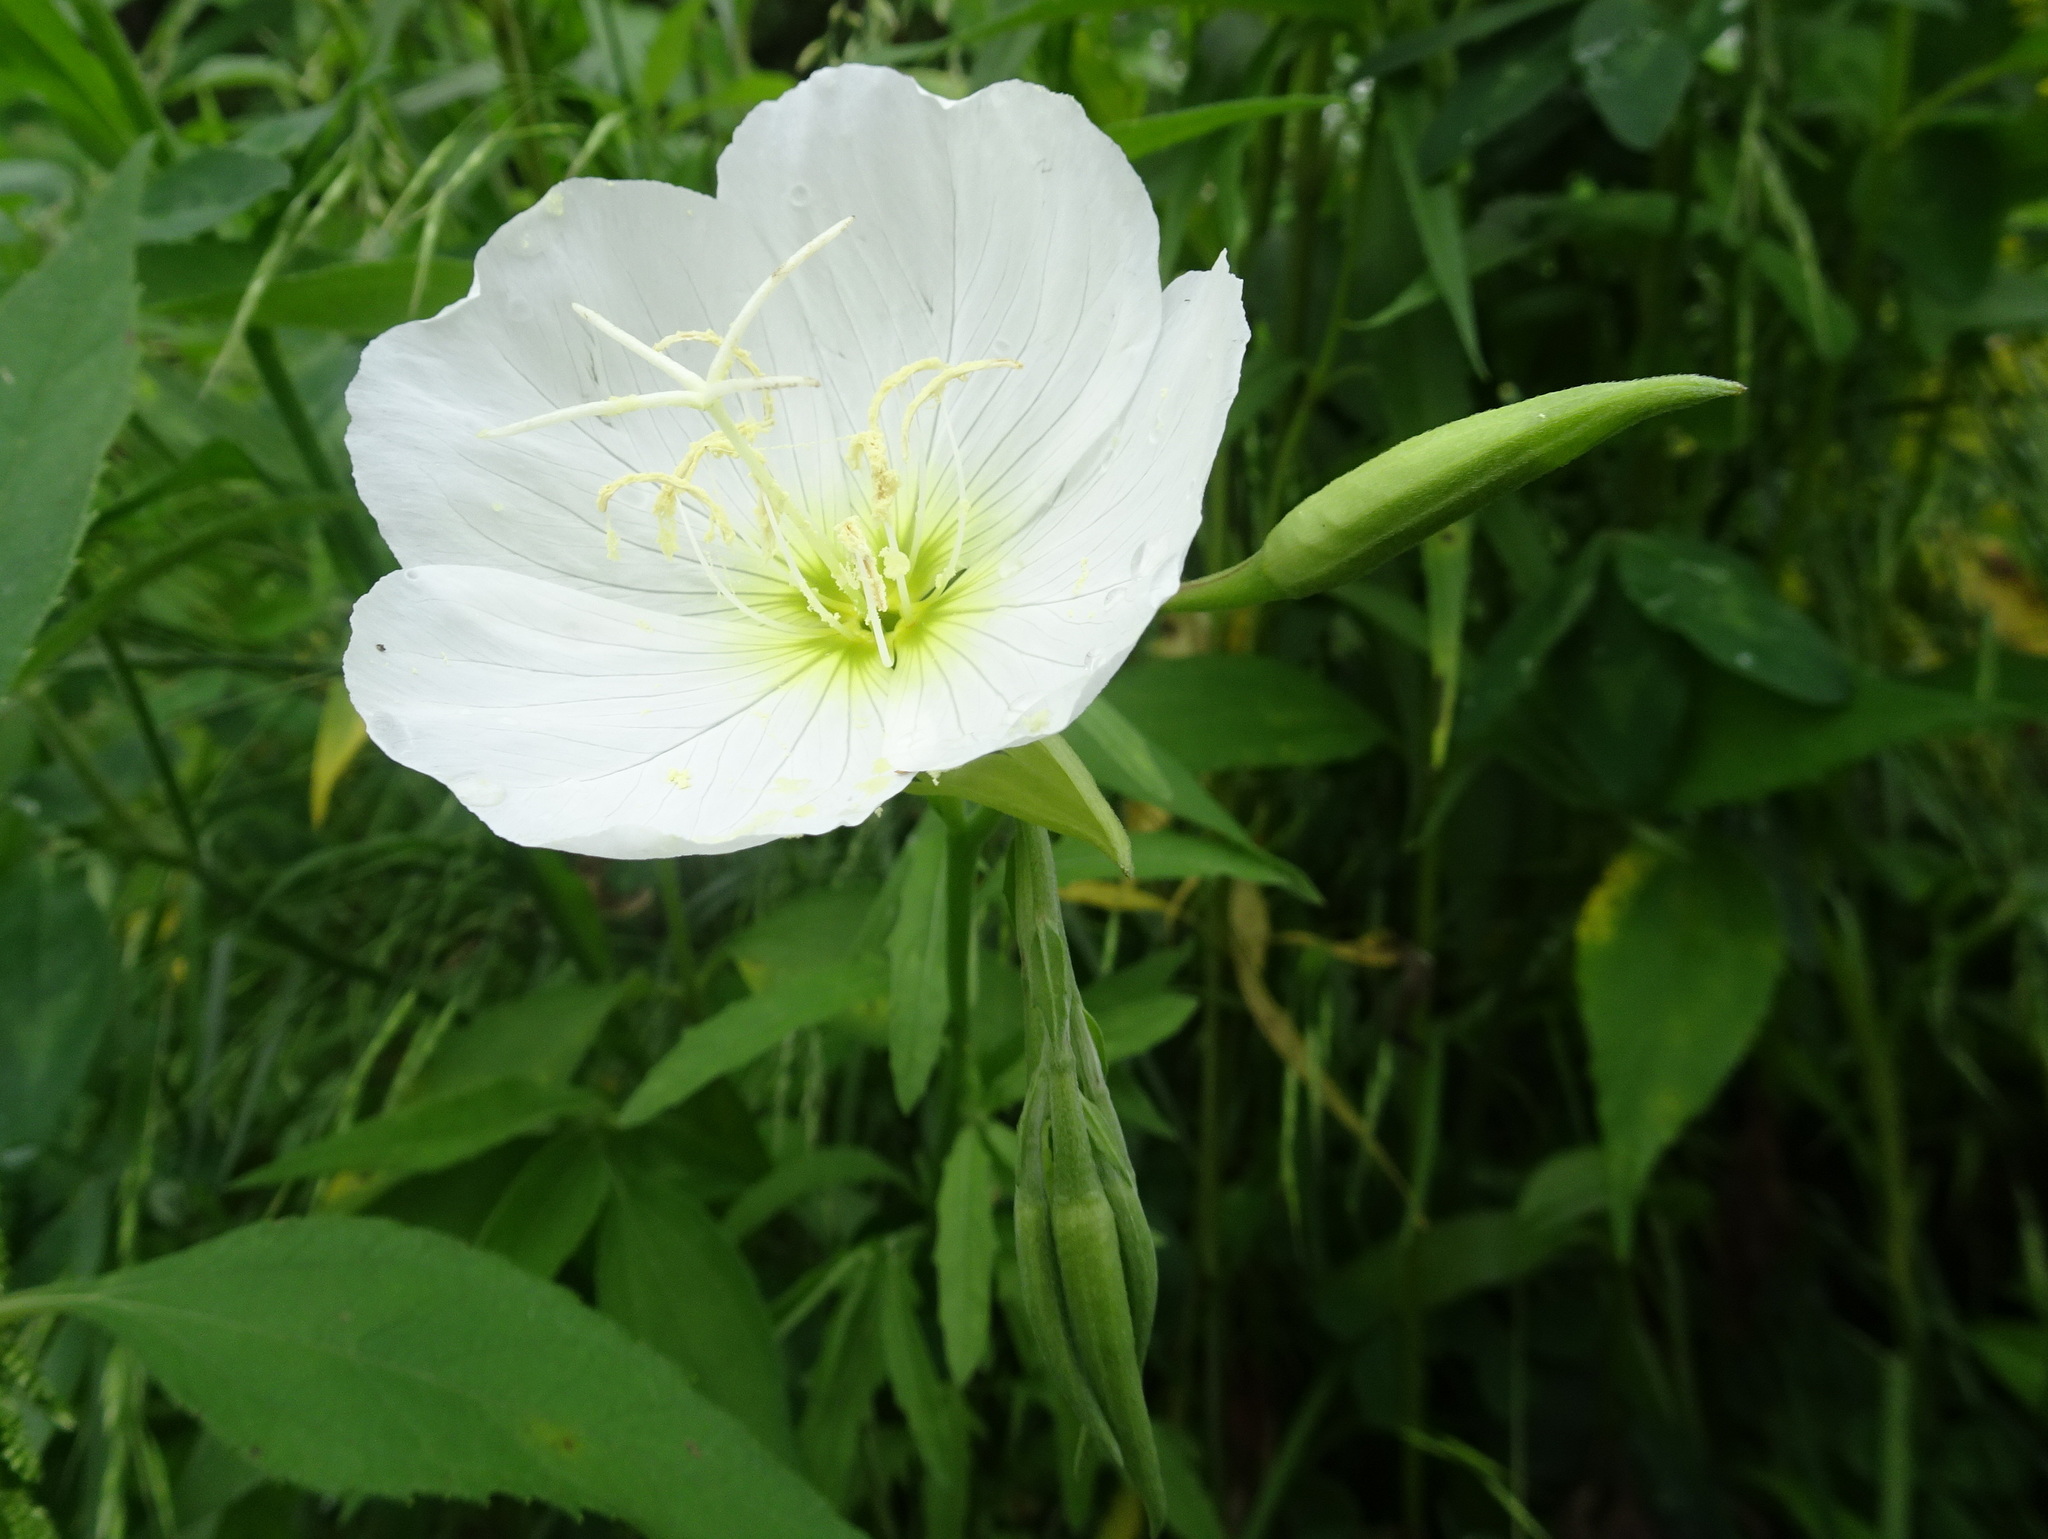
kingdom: Plantae
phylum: Tracheophyta
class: Magnoliopsida
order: Myrtales
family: Onagraceae
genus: Oenothera
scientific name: Oenothera speciosa
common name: White evening-primrose
